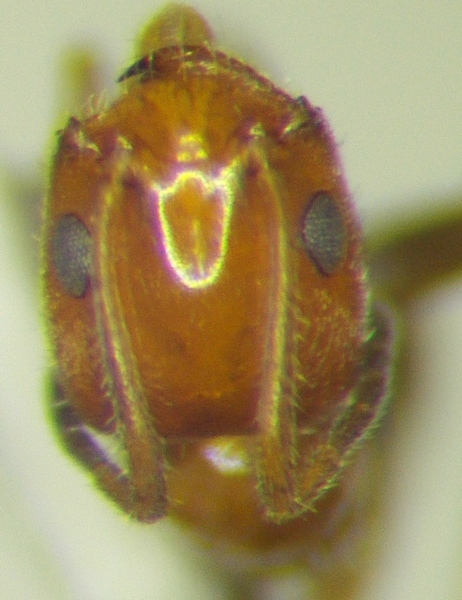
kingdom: Animalia
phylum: Arthropoda
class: Insecta
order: Hymenoptera
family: Formicidae
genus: Forelius
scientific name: Forelius mccooki
